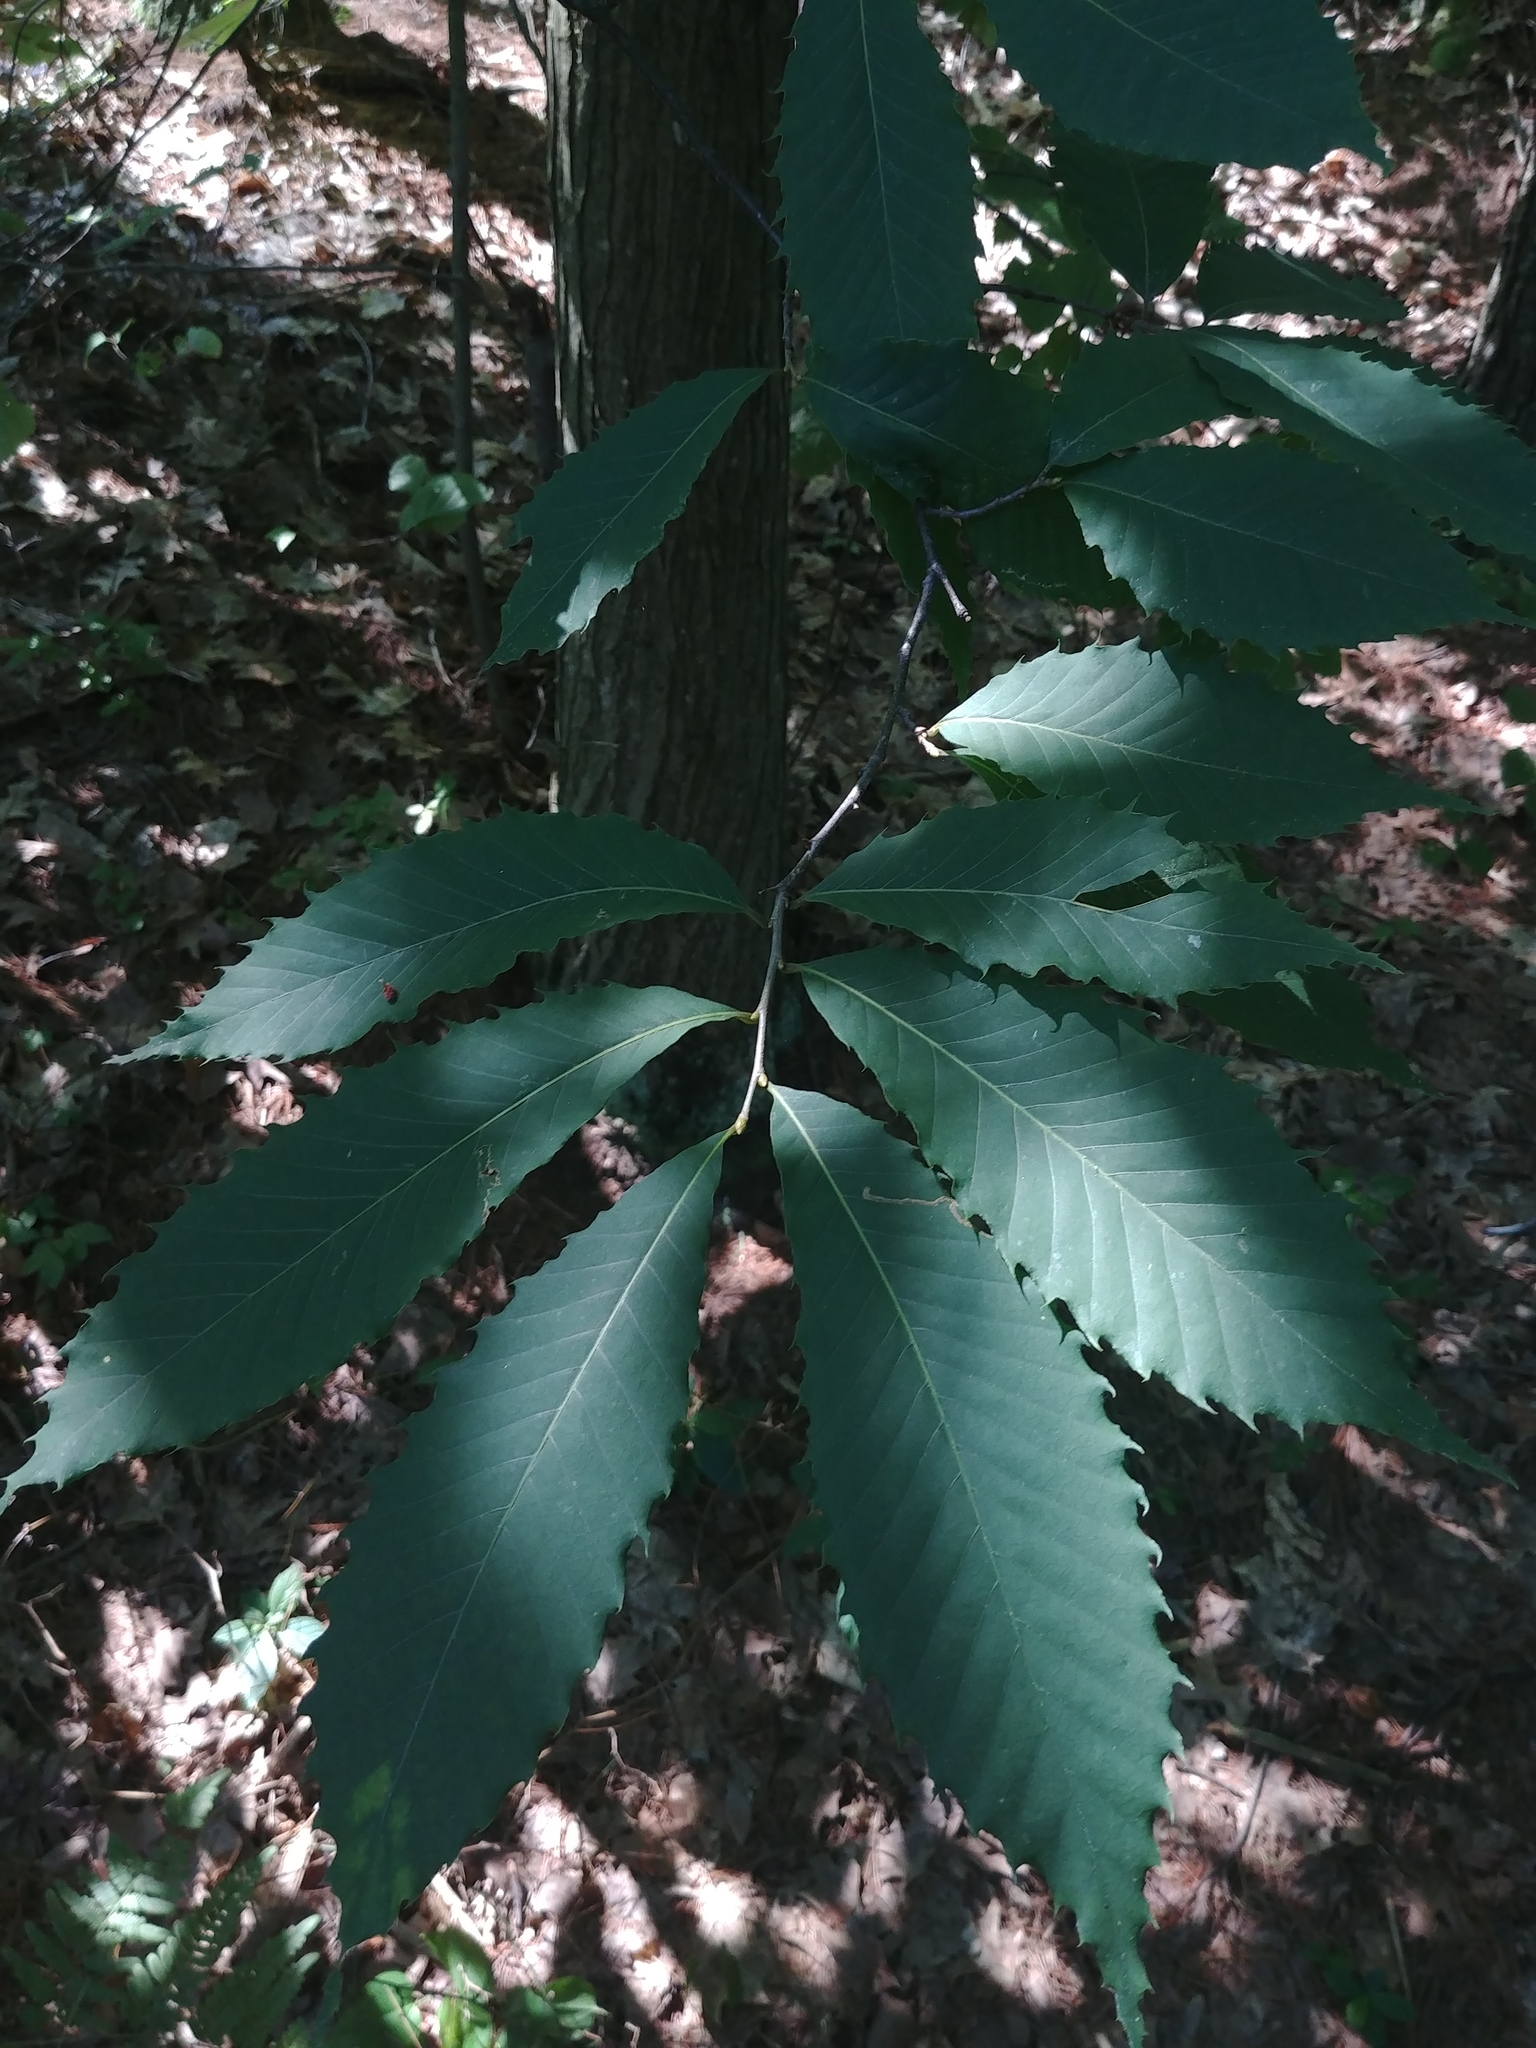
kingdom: Plantae
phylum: Tracheophyta
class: Magnoliopsida
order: Fagales
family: Fagaceae
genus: Castanea
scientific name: Castanea dentata
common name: American chestnut
